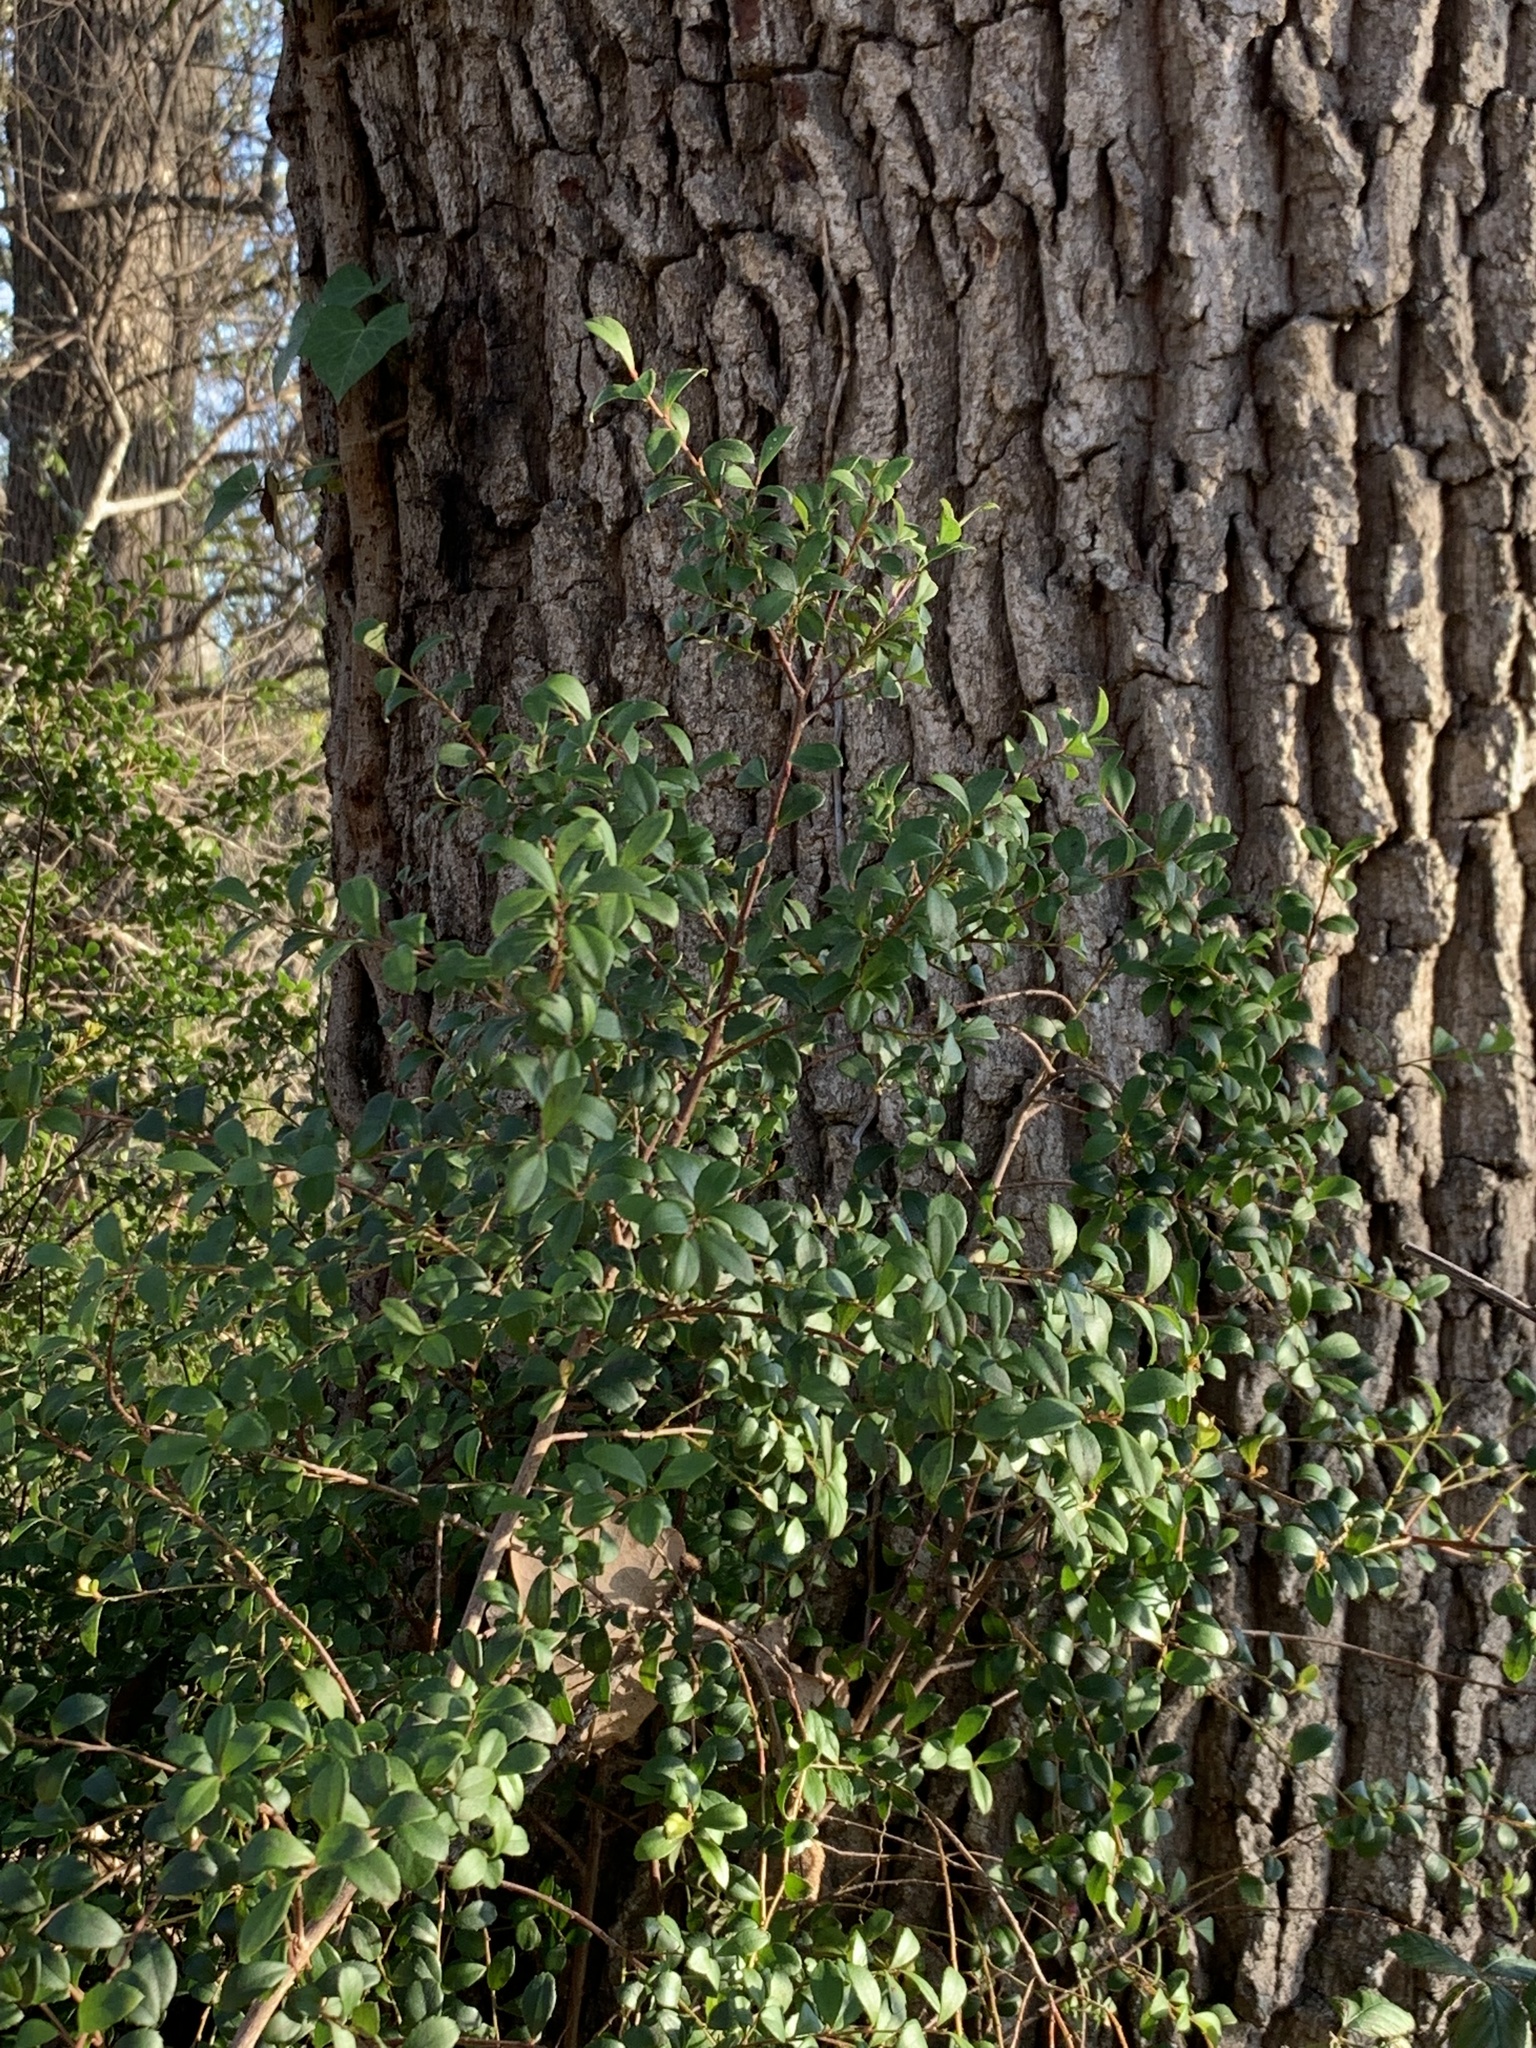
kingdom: Plantae
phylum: Tracheophyta
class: Magnoliopsida
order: Ericales
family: Primulaceae
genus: Myrsine
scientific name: Myrsine africana
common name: African-boxwood
